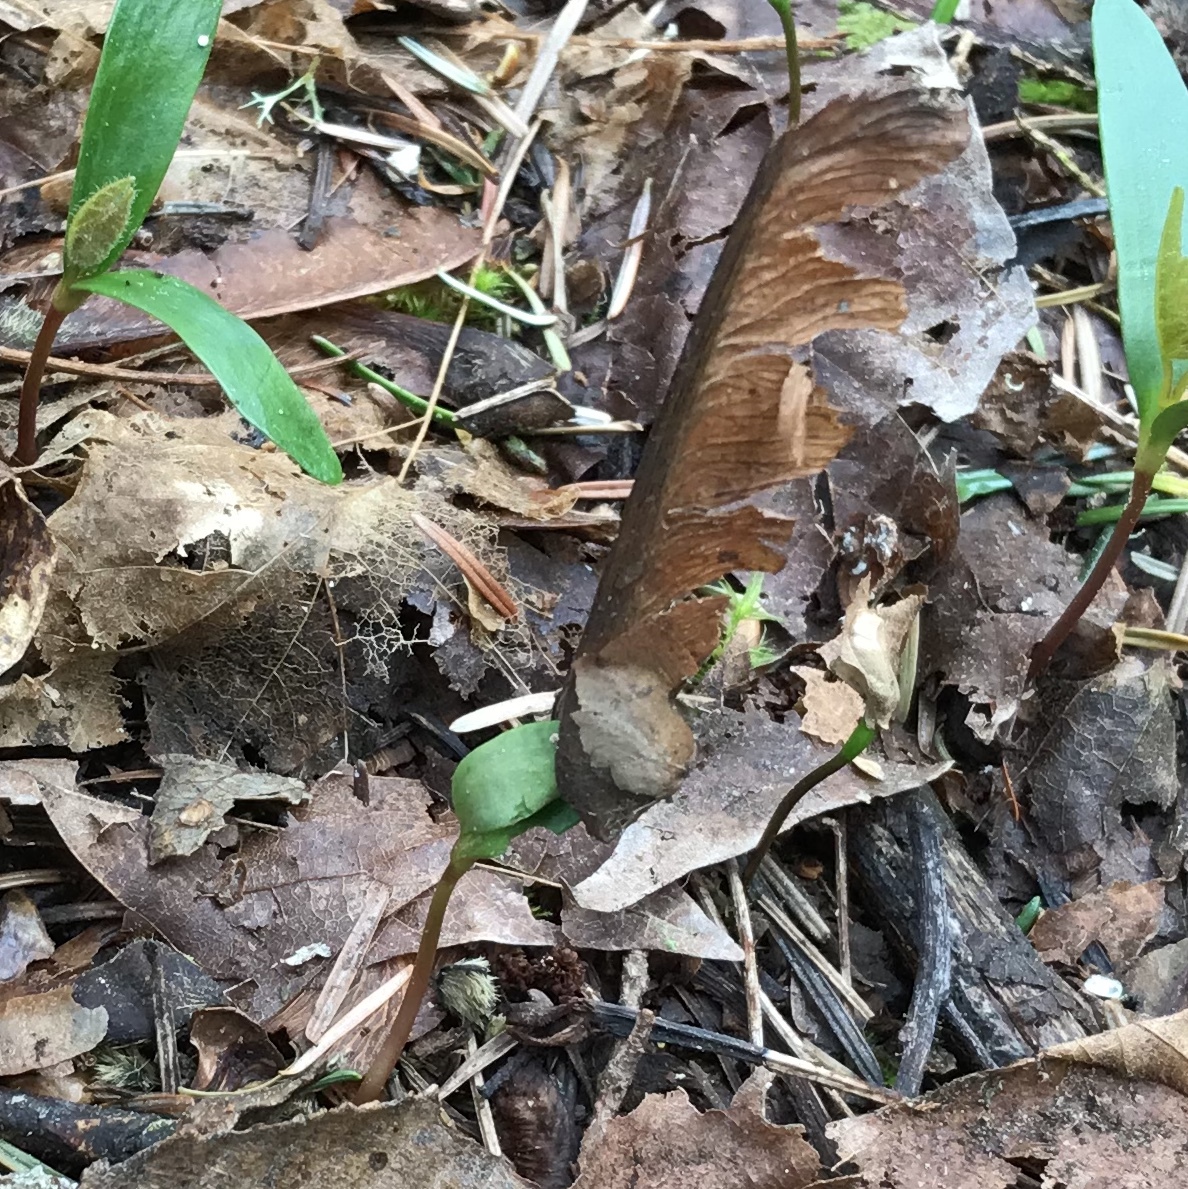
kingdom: Plantae
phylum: Tracheophyta
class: Magnoliopsida
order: Sapindales
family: Sapindaceae
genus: Acer
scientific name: Acer macrophyllum
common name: Oregon maple
